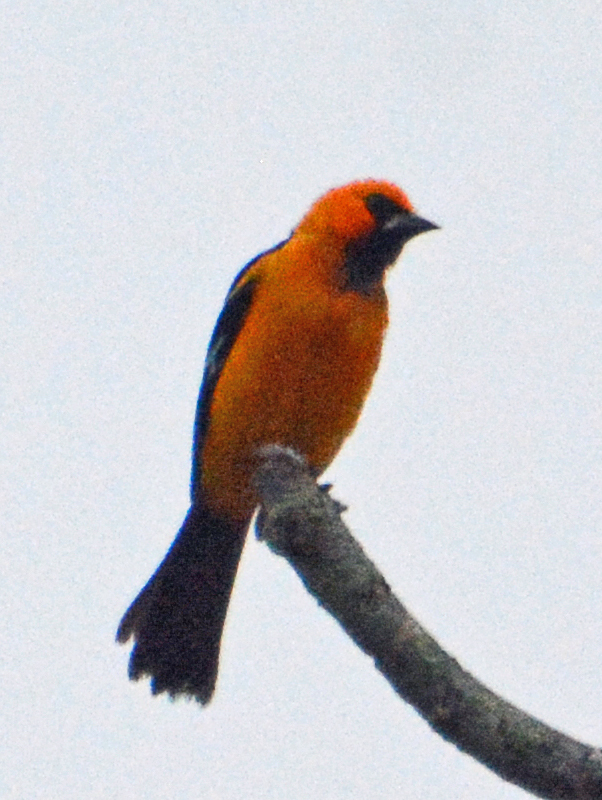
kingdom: Animalia
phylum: Chordata
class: Aves
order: Passeriformes
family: Icteridae
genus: Icterus
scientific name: Icterus gularis
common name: Altamira oriole
